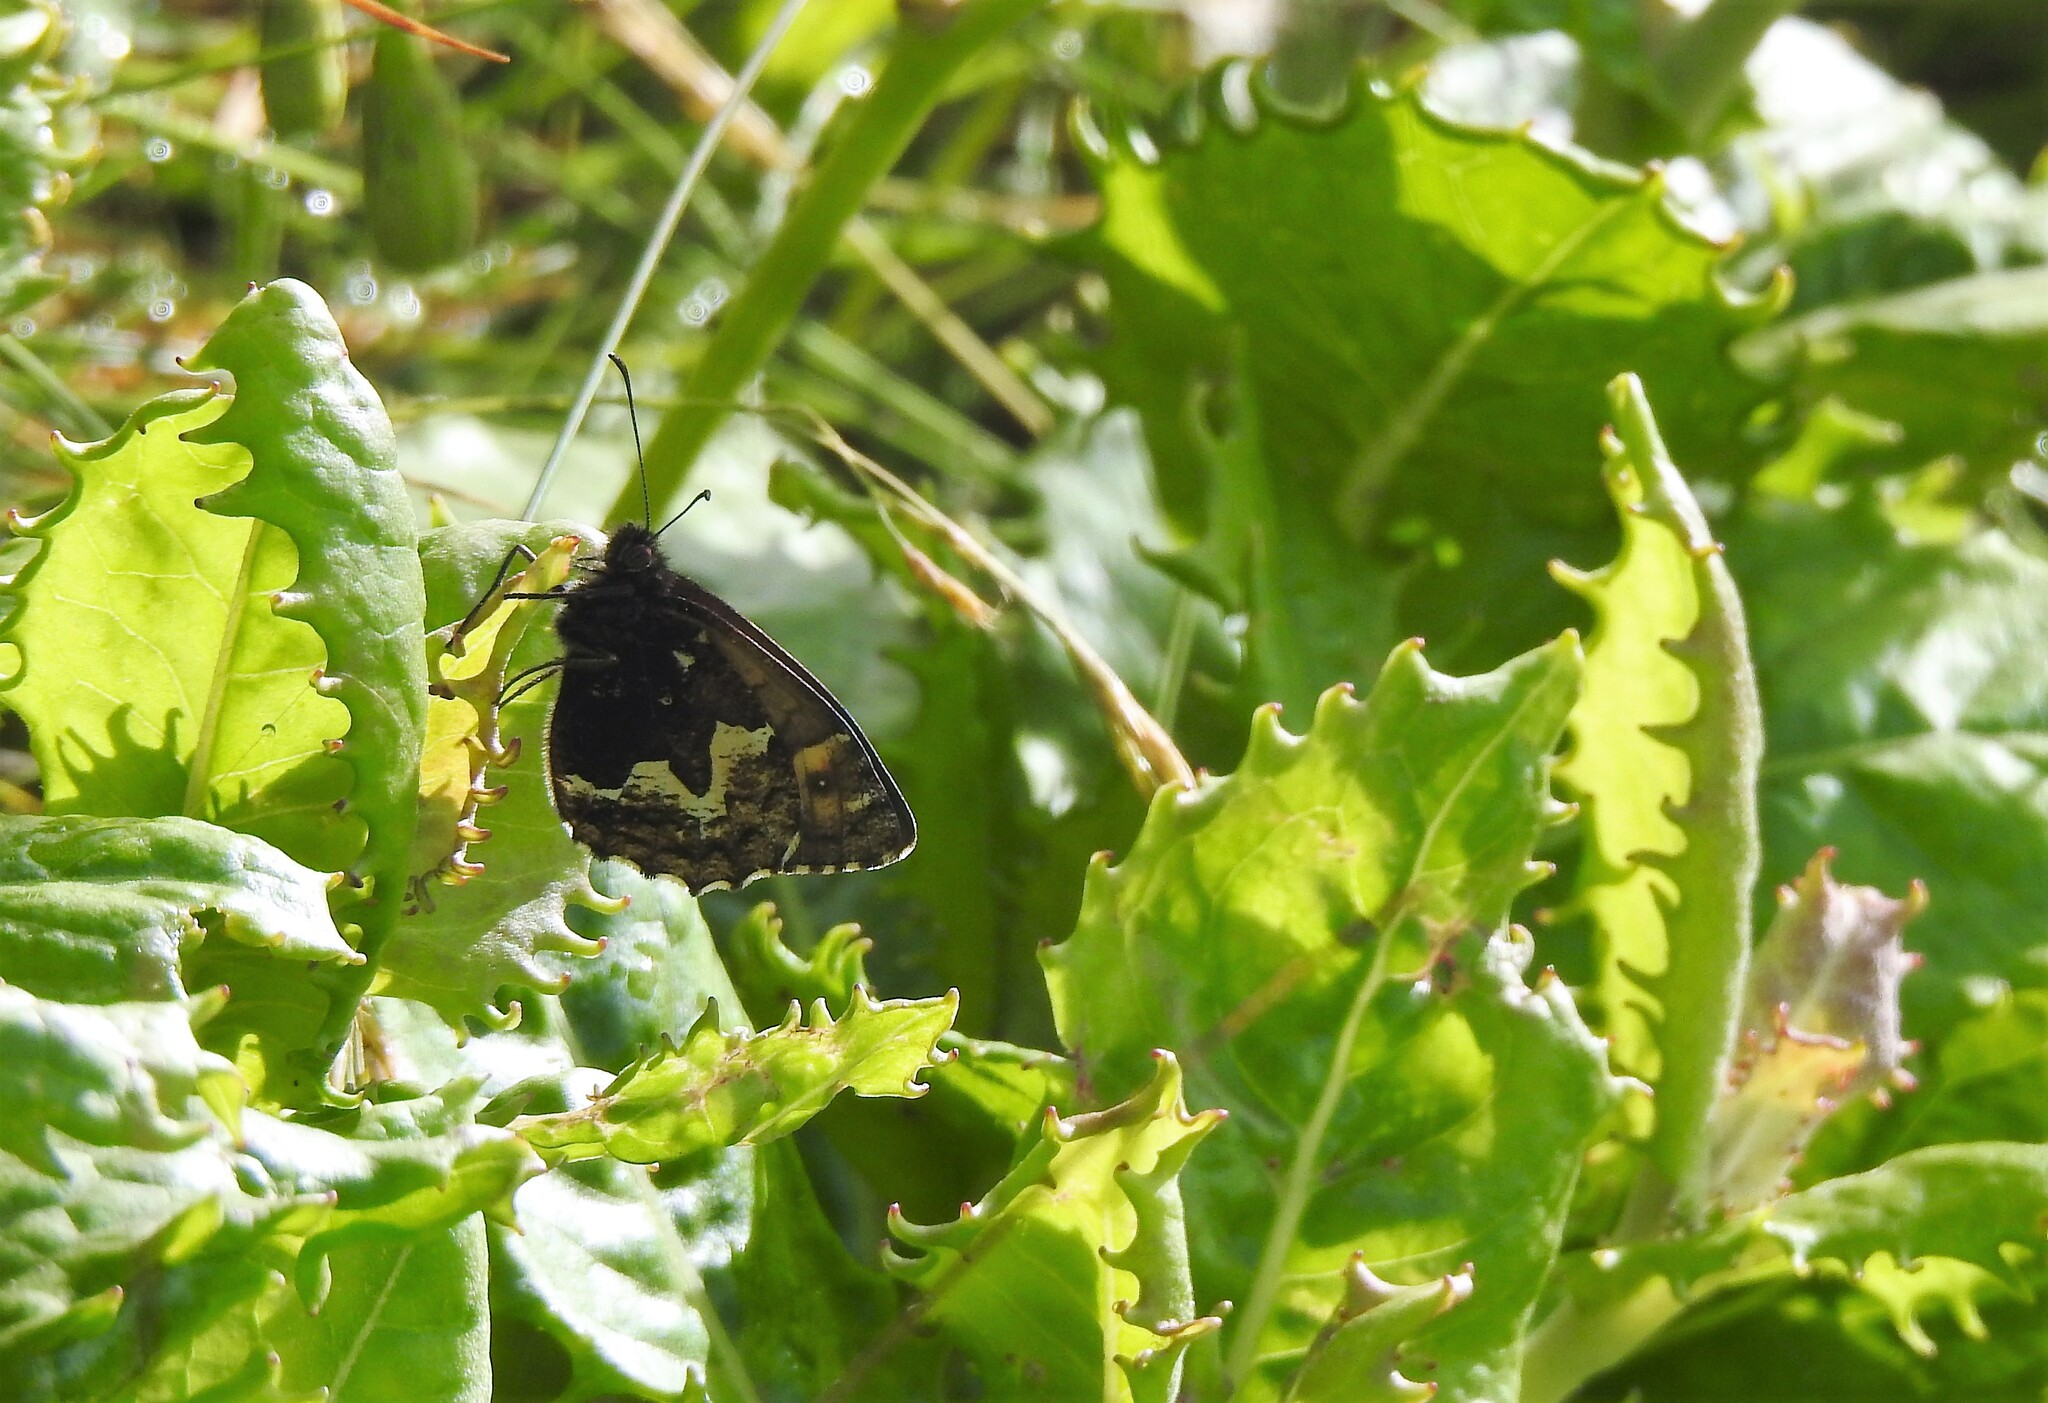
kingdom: Animalia
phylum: Arthropoda
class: Insecta
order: Lepidoptera
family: Nymphalidae
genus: Hipparchia
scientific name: Hipparchia azorinus
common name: Azores grayling
